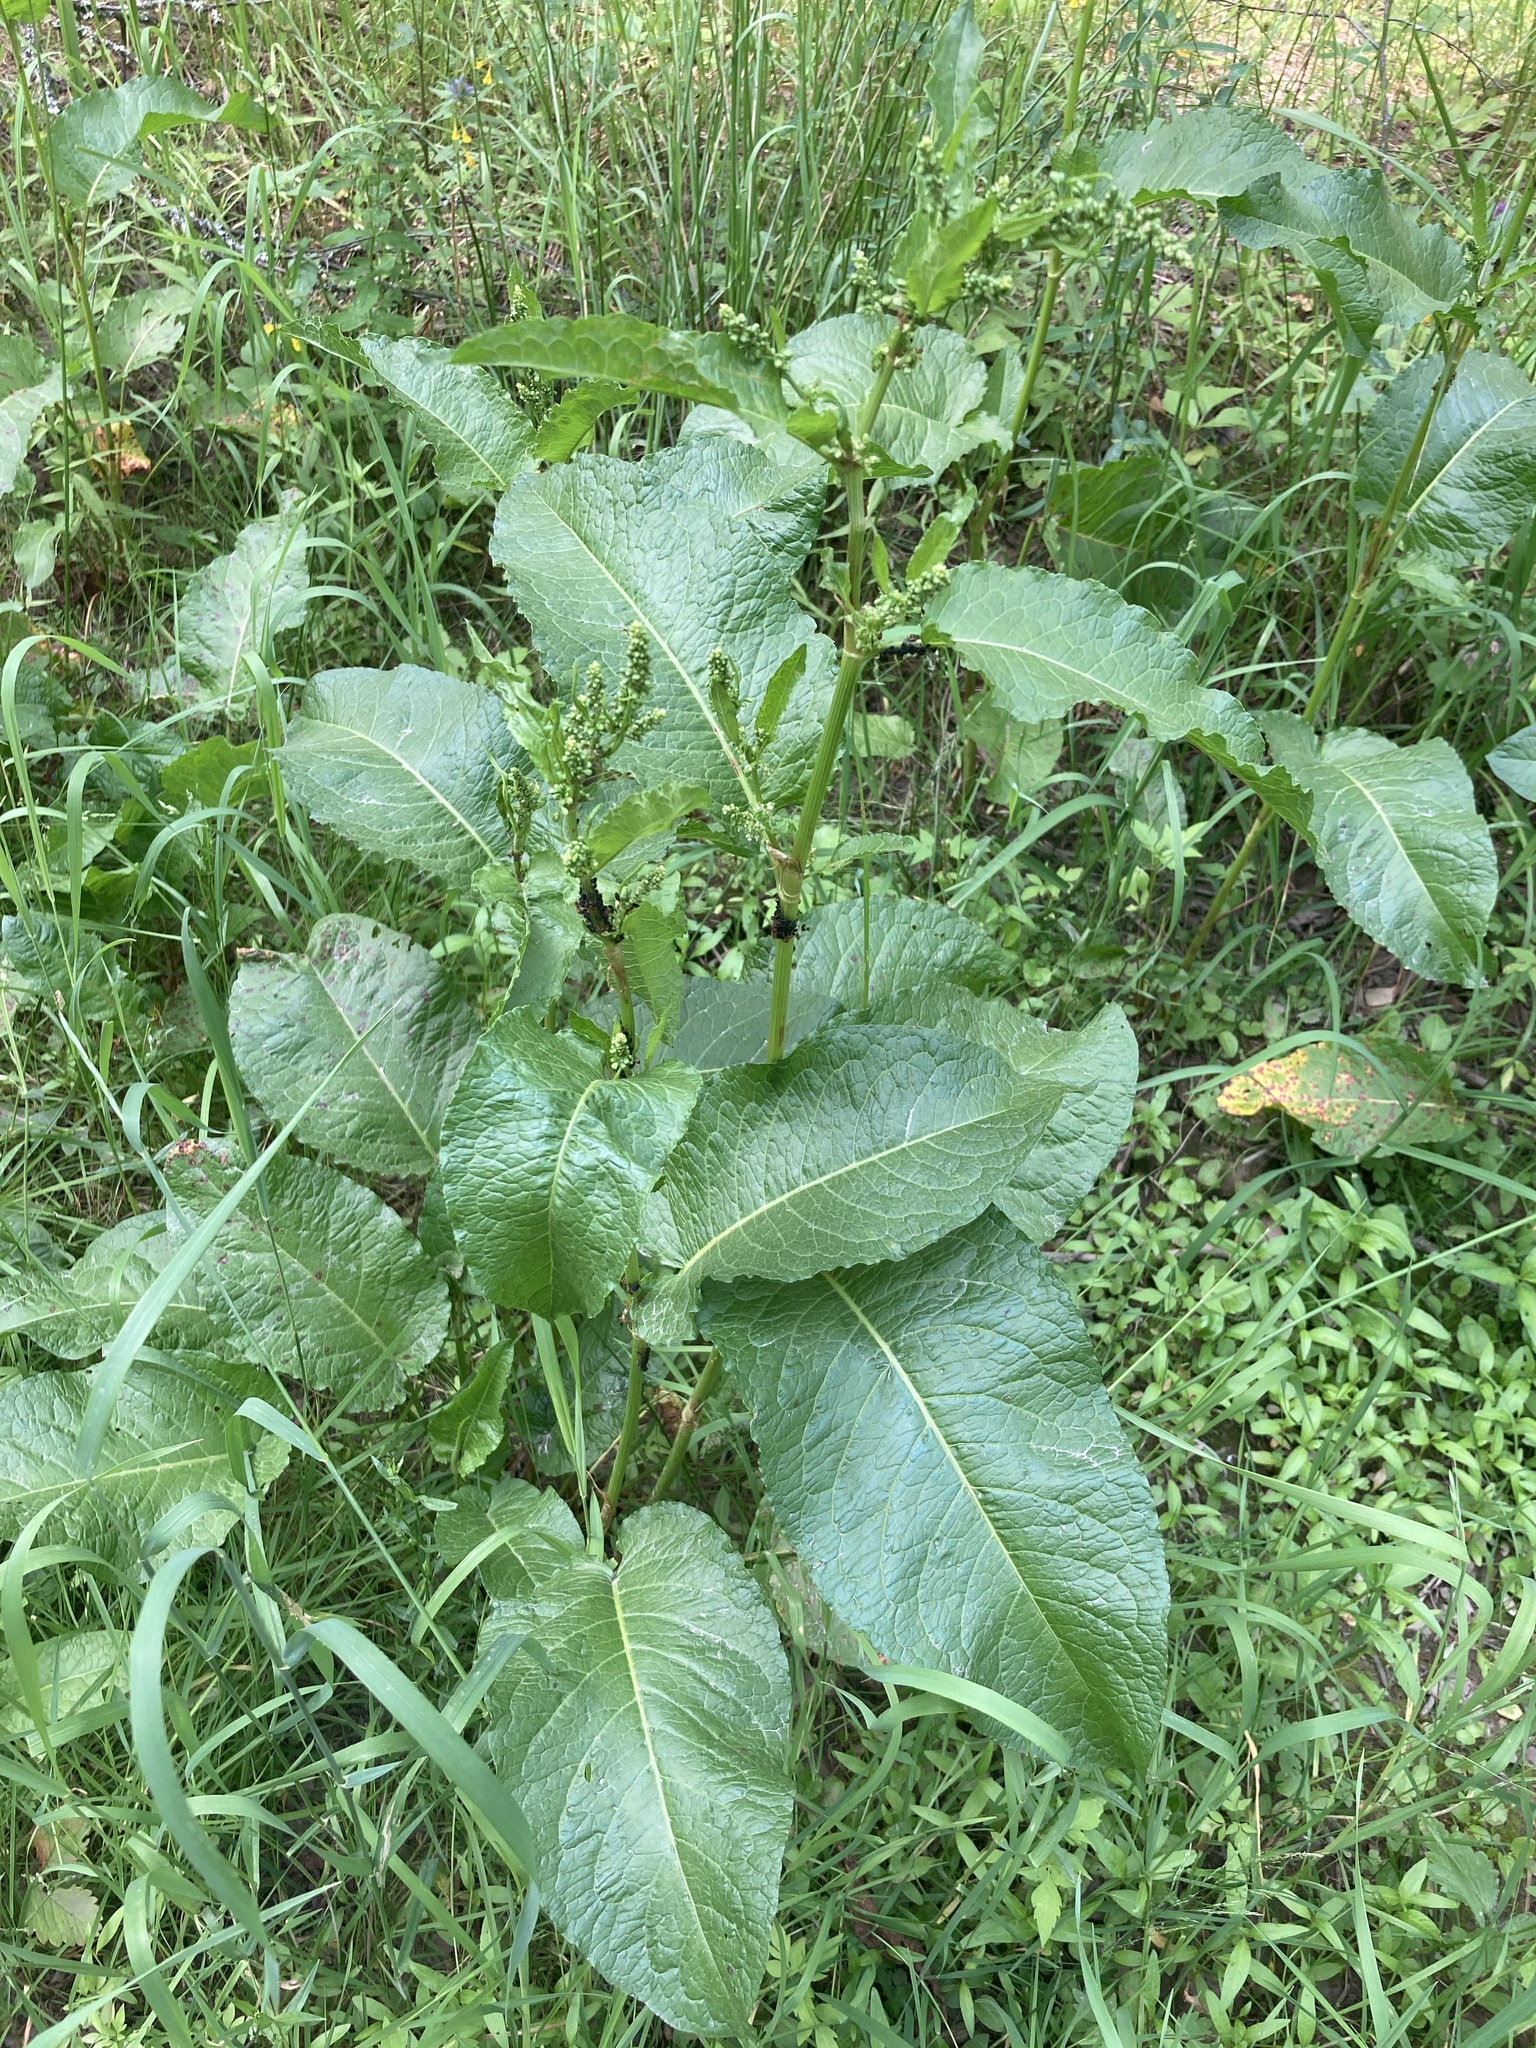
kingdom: Plantae
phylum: Tracheophyta
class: Magnoliopsida
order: Caryophyllales
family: Polygonaceae
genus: Rumex
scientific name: Rumex obtusifolius
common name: Bitter dock
